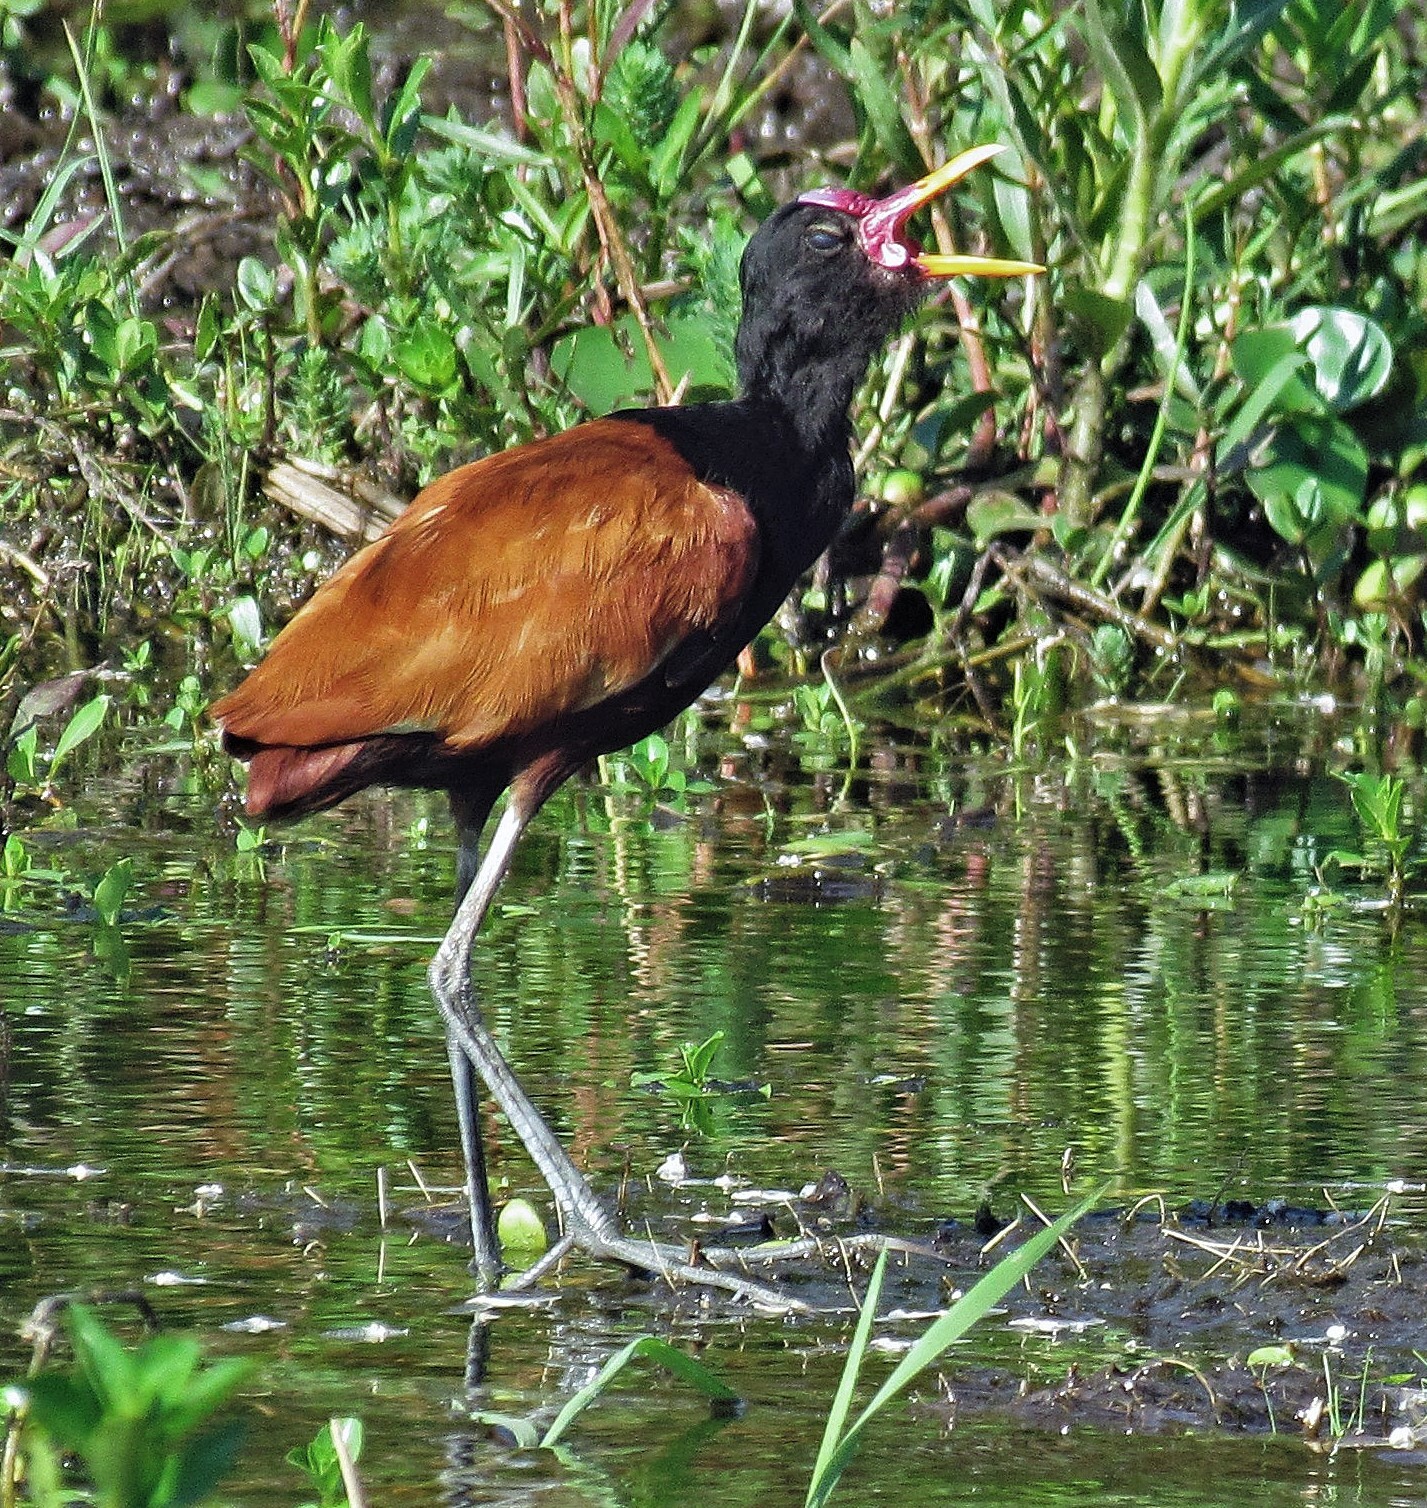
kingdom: Animalia
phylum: Chordata
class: Aves
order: Charadriiformes
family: Jacanidae
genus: Jacana
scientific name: Jacana jacana
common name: Wattled jacana
